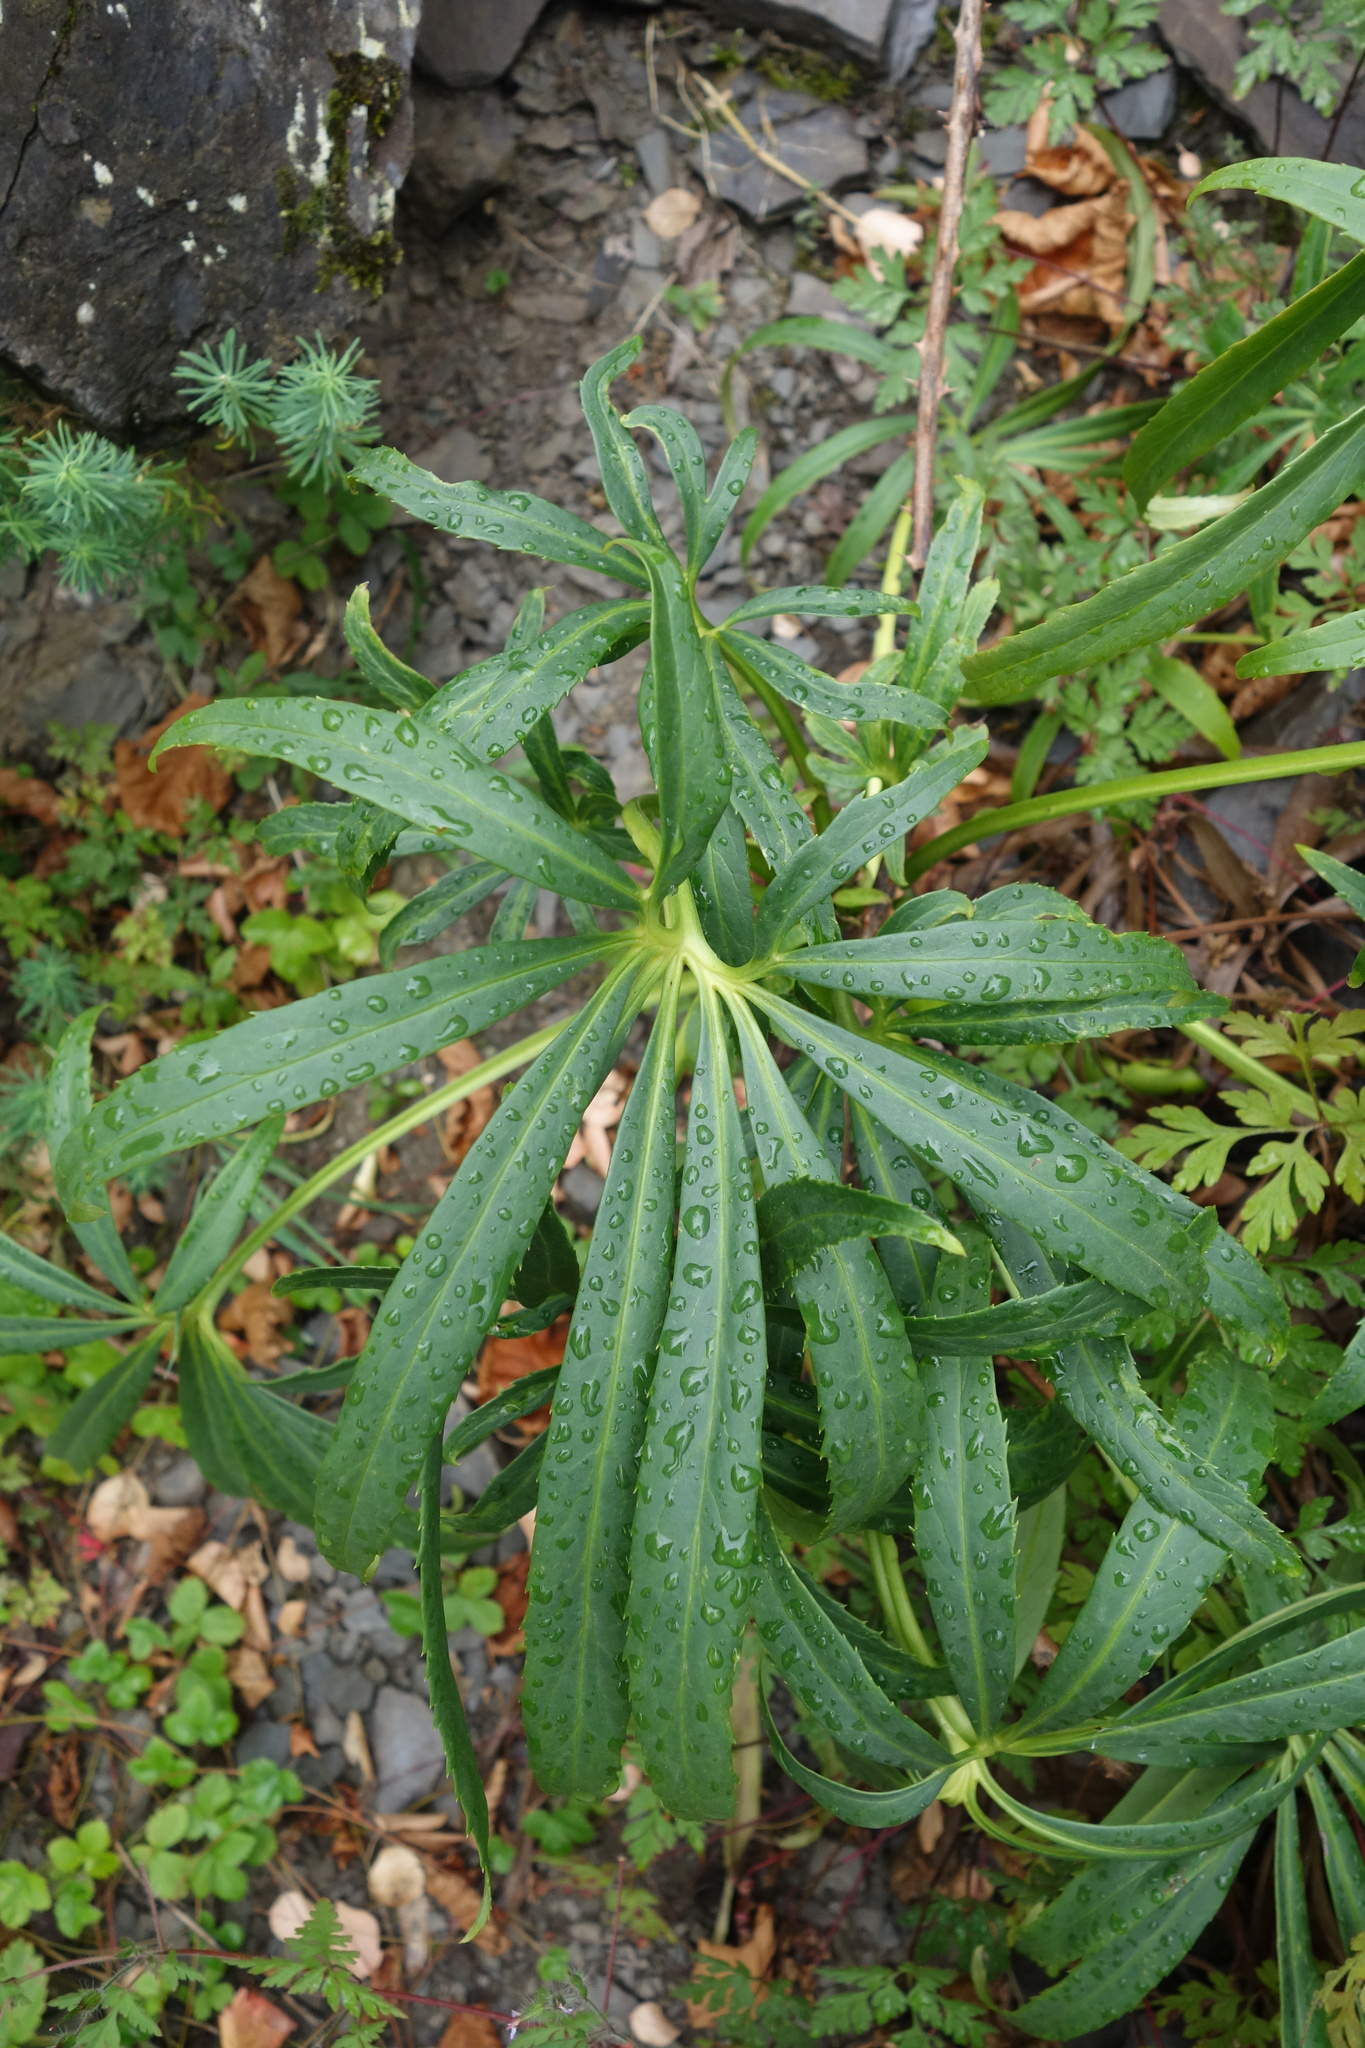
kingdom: Plantae
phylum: Tracheophyta
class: Magnoliopsida
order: Ranunculales
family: Ranunculaceae
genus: Helleborus
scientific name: Helleborus foetidus
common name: Stinking hellebore
